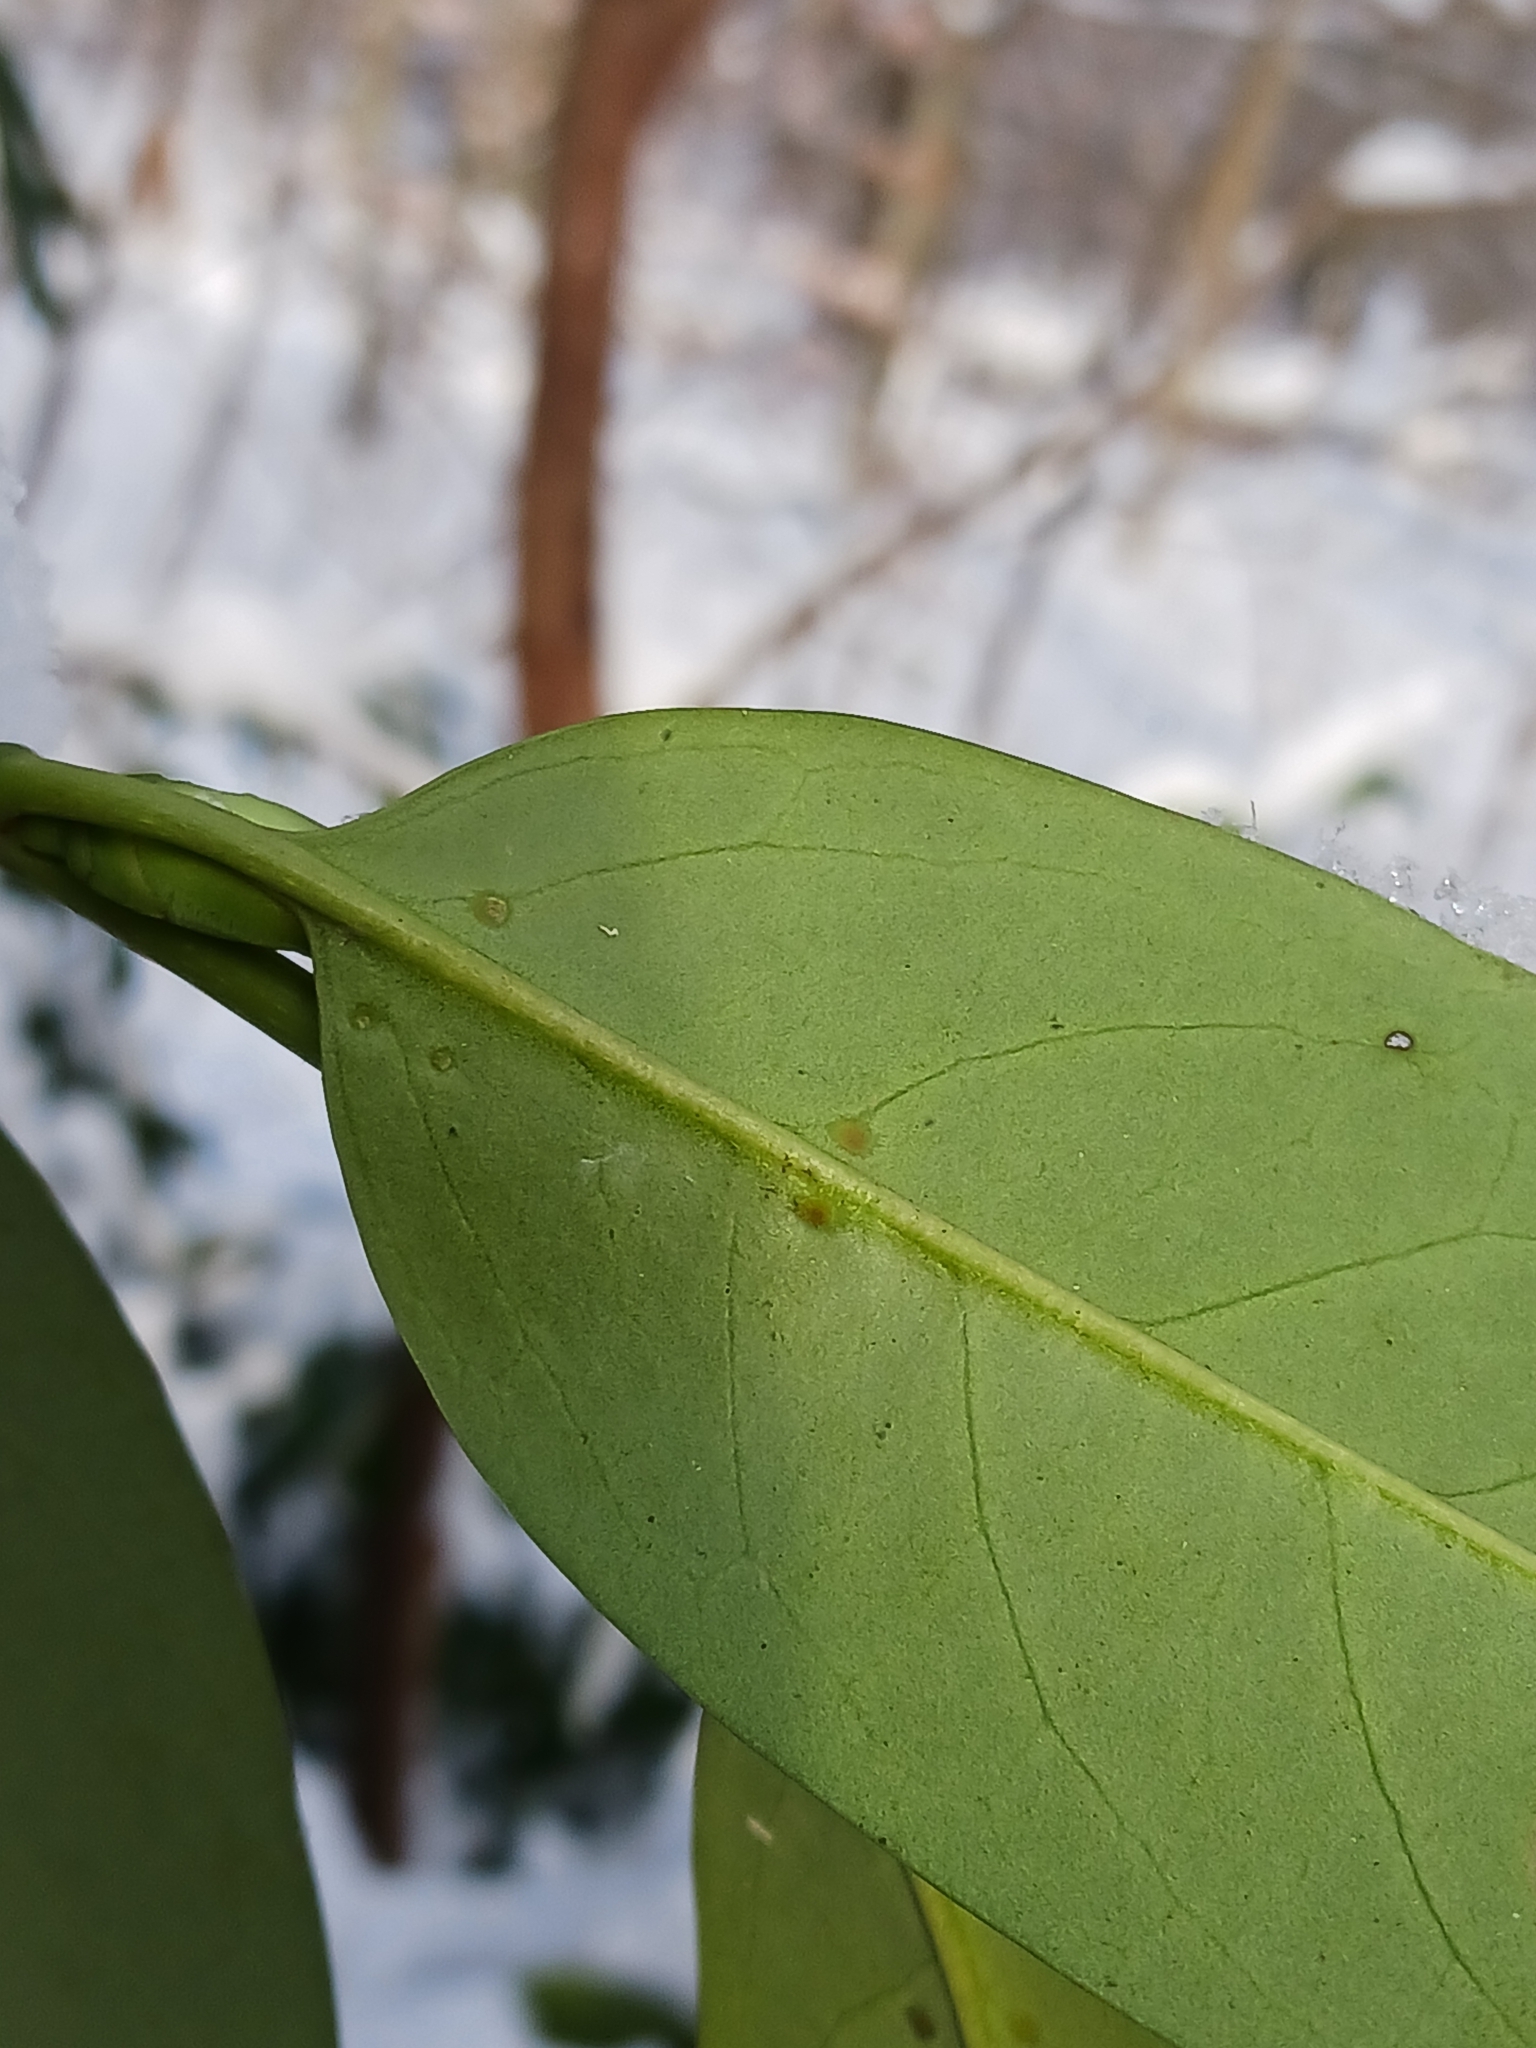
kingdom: Plantae
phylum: Tracheophyta
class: Magnoliopsida
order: Rosales
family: Rosaceae
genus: Prunus
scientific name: Prunus laurocerasus
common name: Cherry laurel
